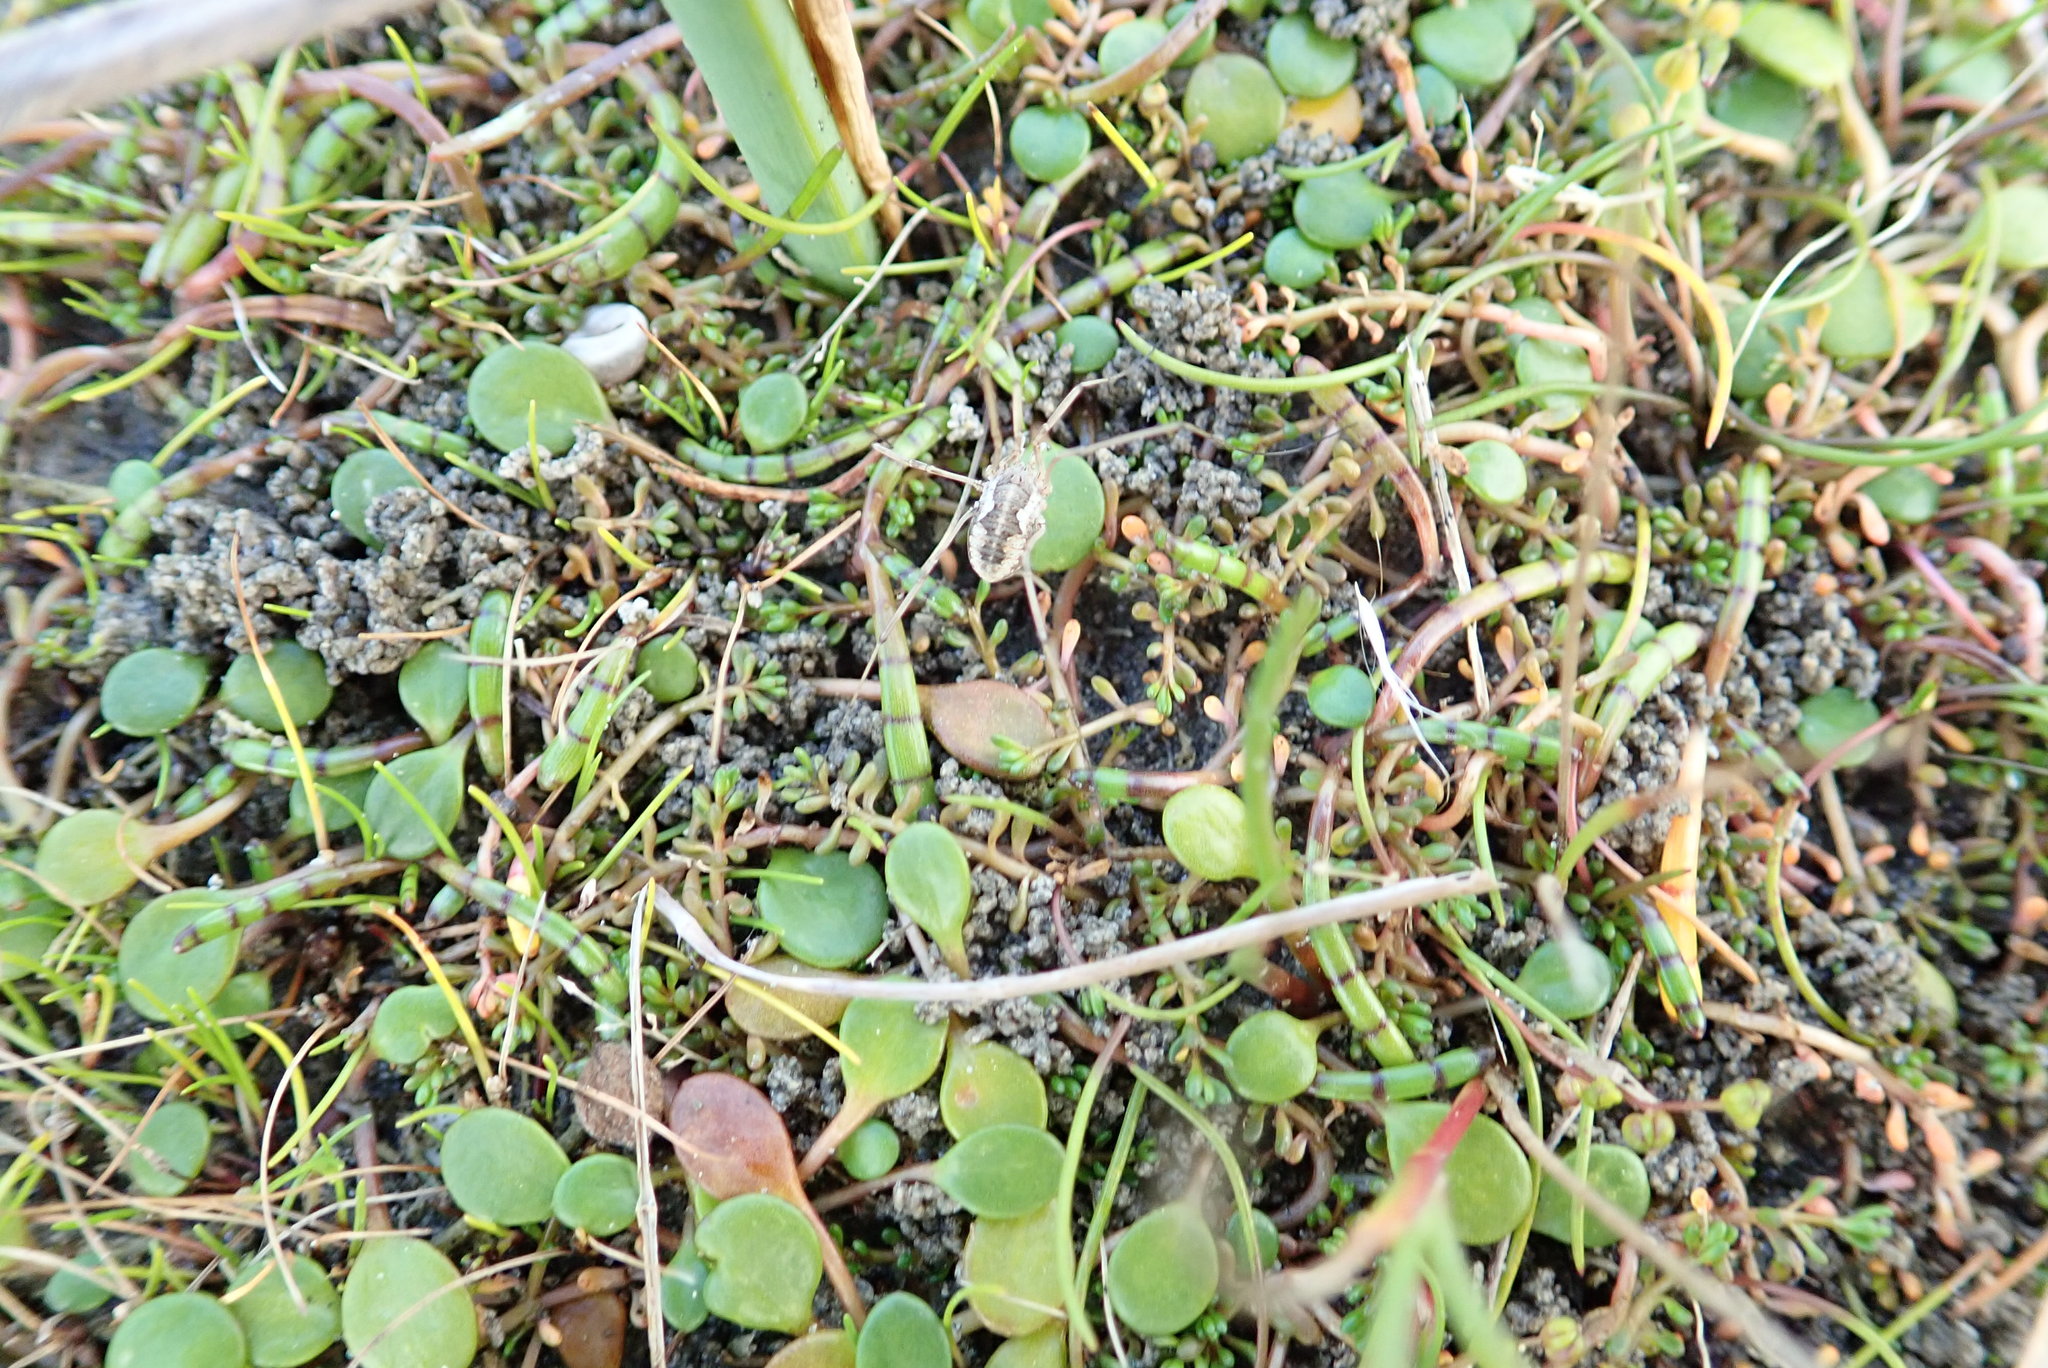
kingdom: Animalia
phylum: Arthropoda
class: Arachnida
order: Opiliones
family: Phalangiidae
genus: Phalangium
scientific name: Phalangium opilio
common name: Daddy longleg
